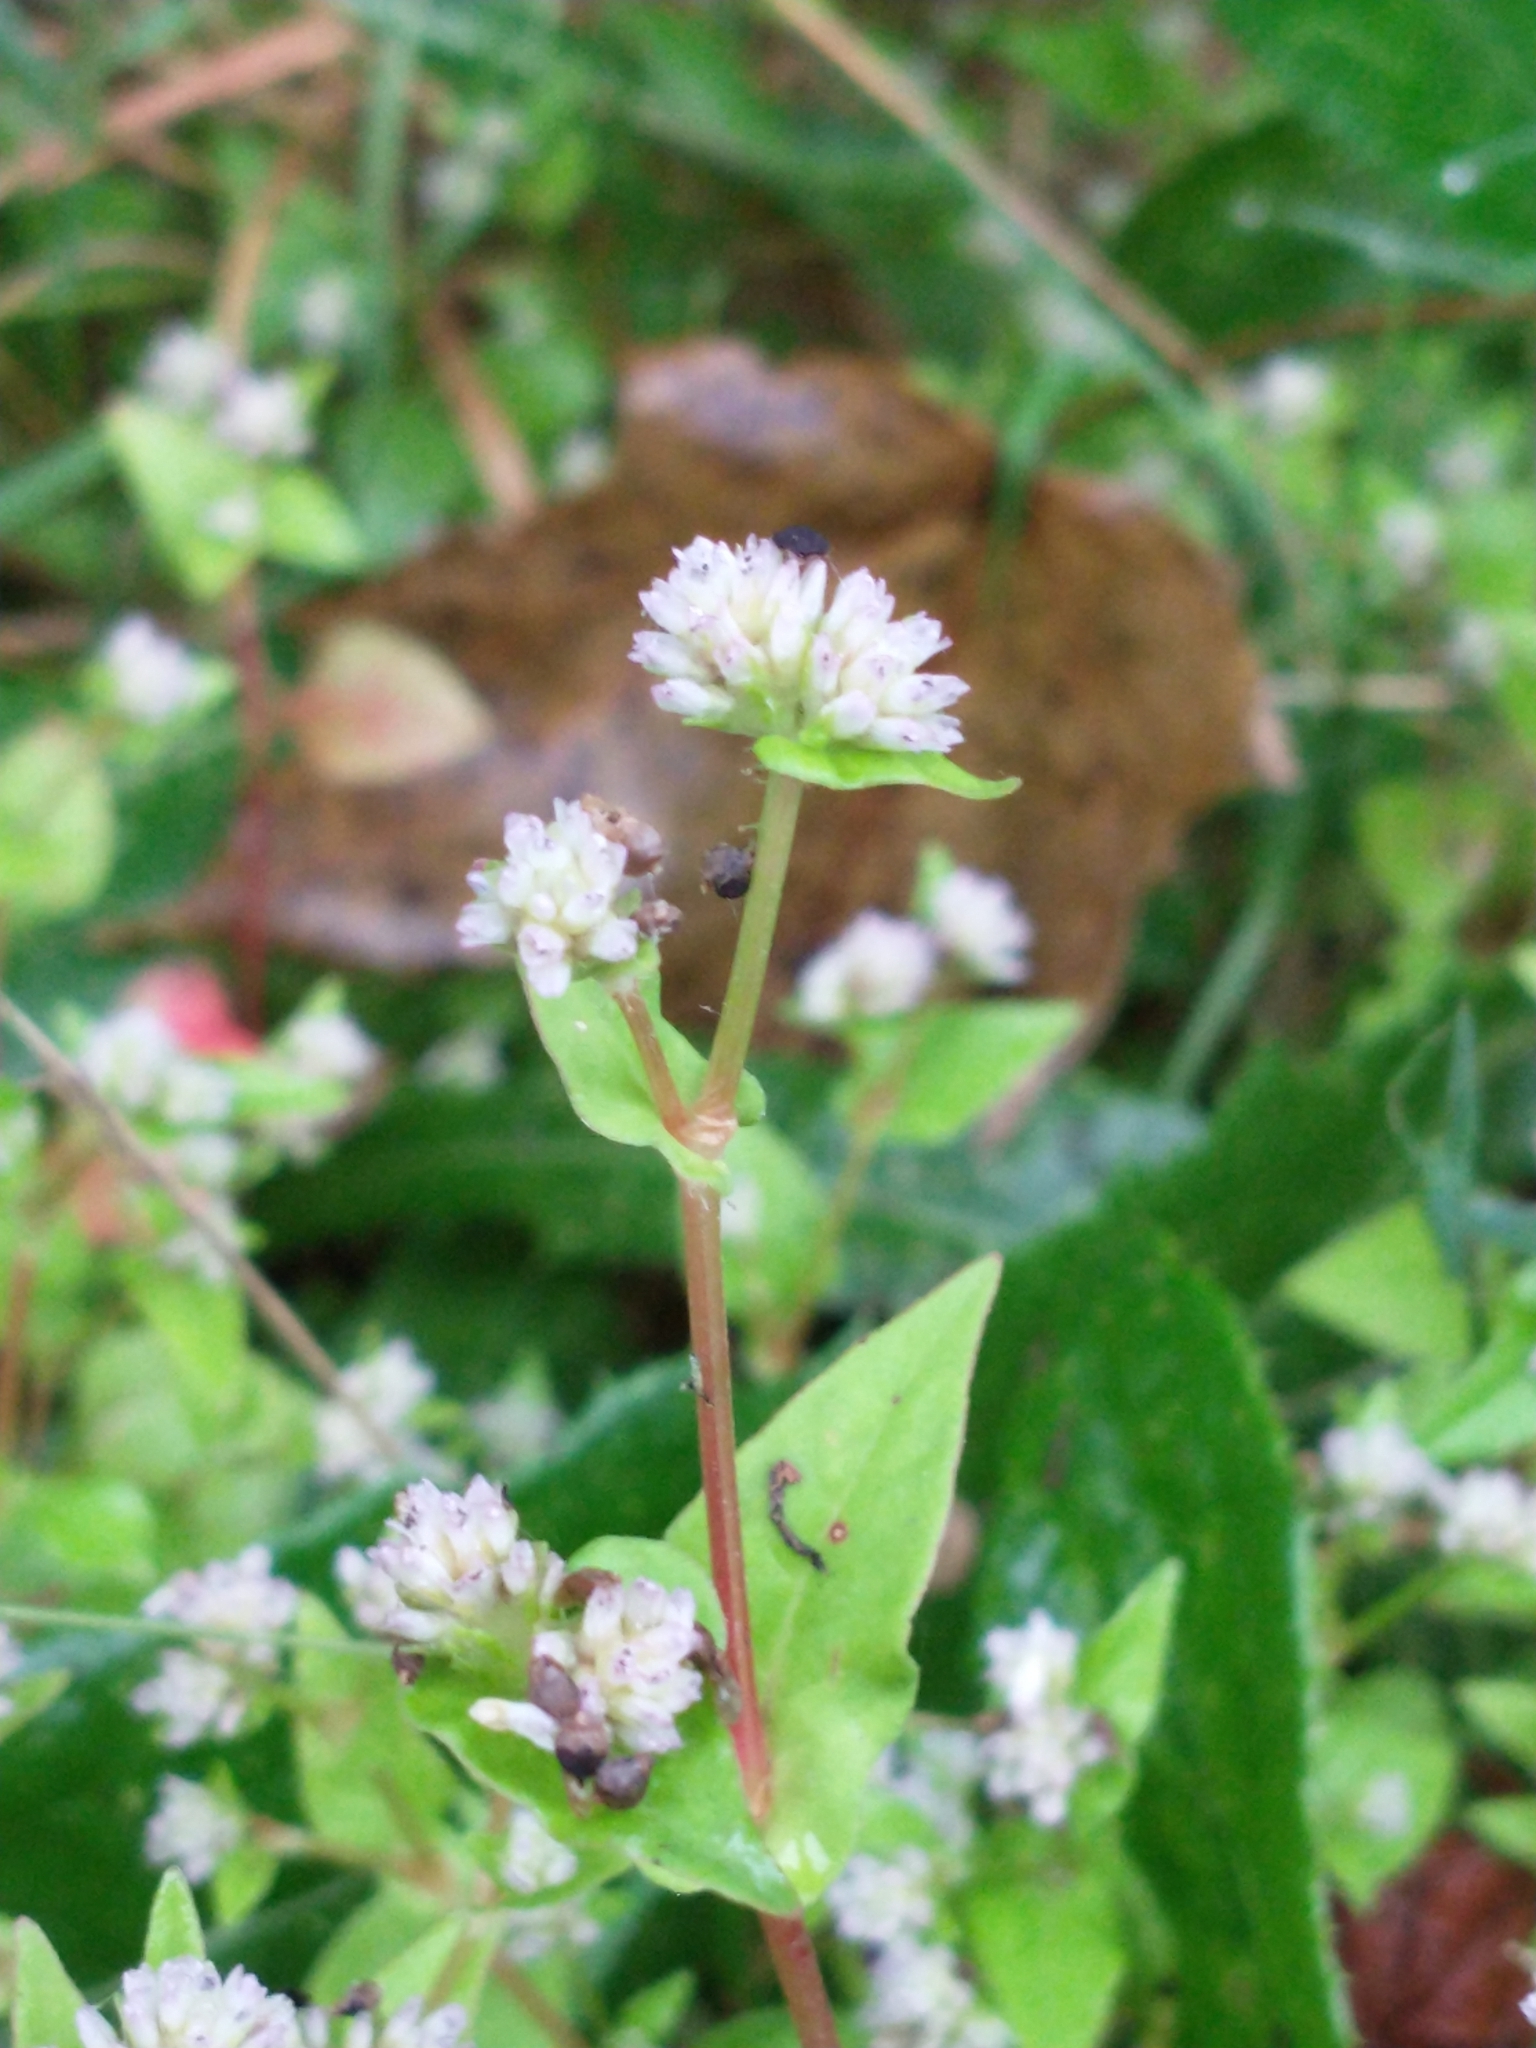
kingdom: Plantae
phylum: Tracheophyta
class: Magnoliopsida
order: Caryophyllales
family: Polygonaceae
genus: Persicaria
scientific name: Persicaria nepalensis
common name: Nepal persicaria
